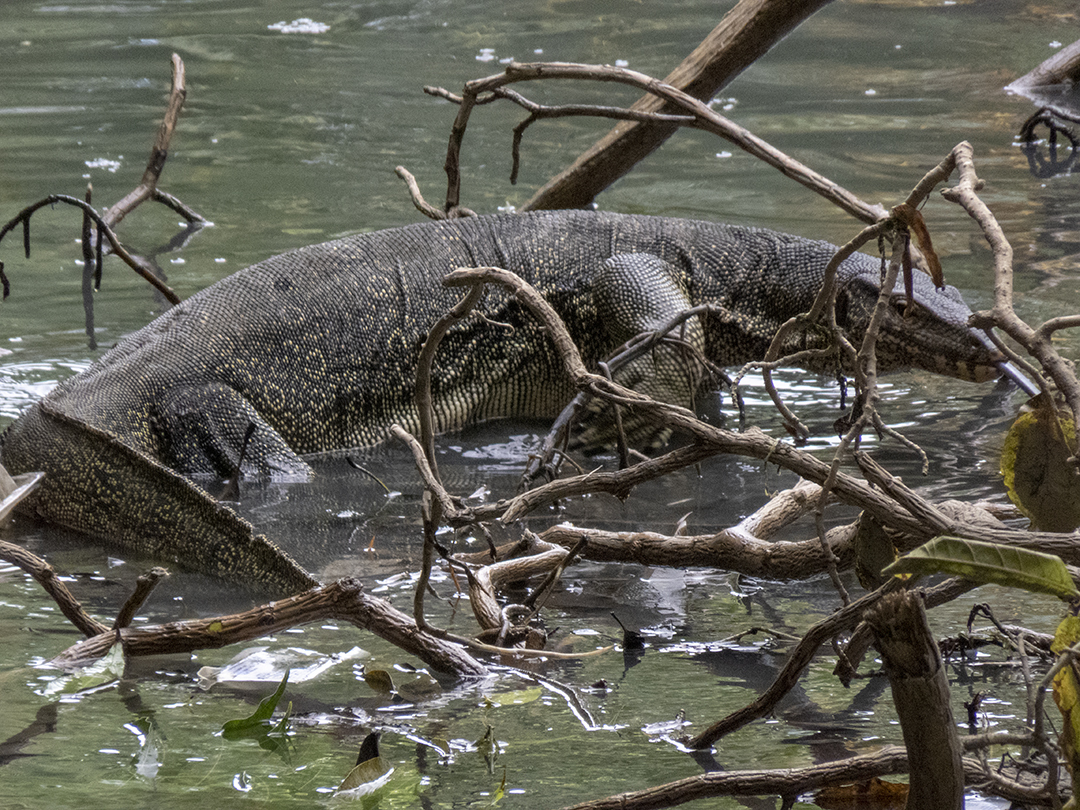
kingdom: Animalia
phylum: Chordata
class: Squamata
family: Varanidae
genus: Varanus
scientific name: Varanus salvator
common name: Common water monitor
